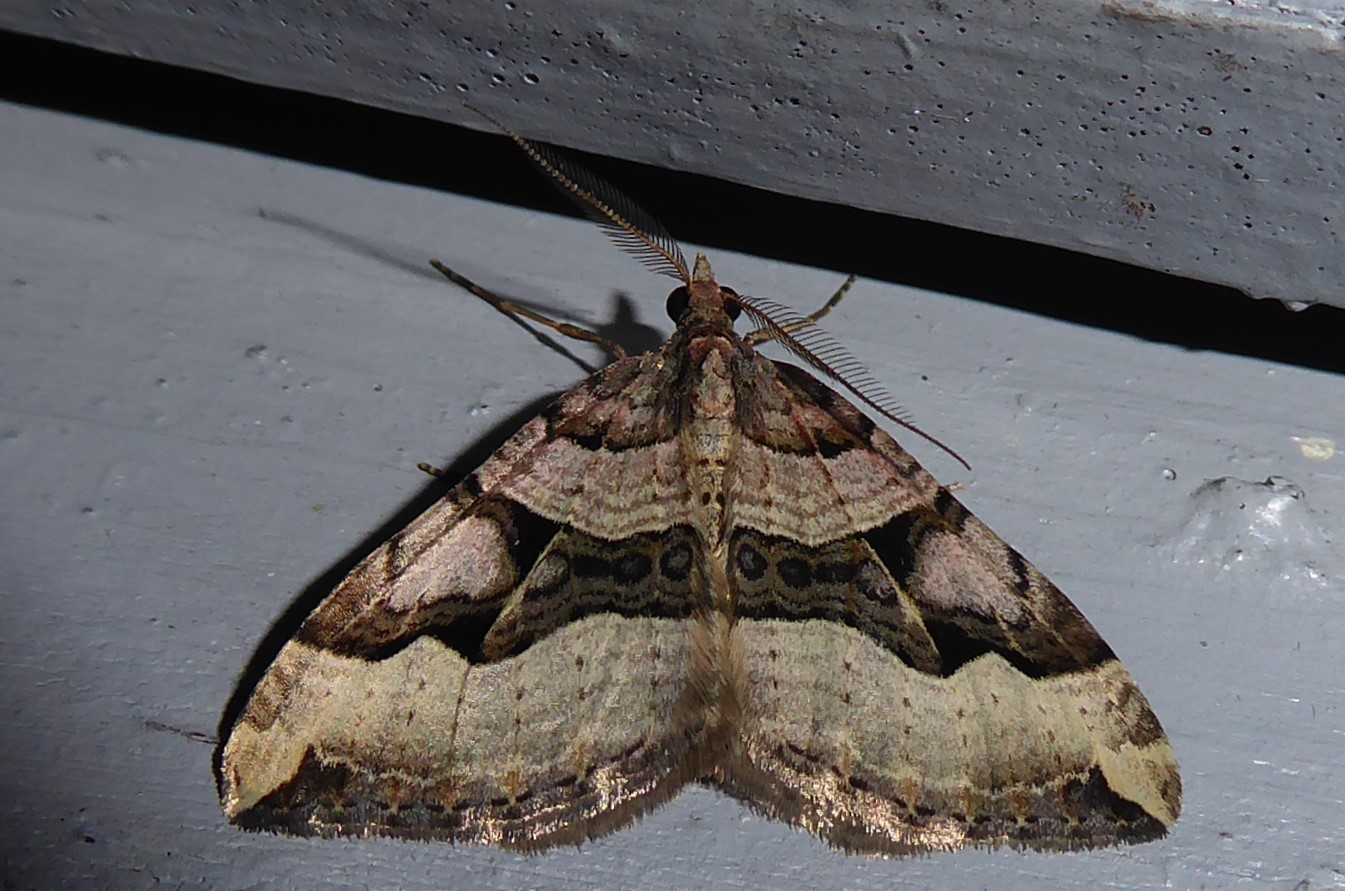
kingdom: Animalia
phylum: Arthropoda
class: Insecta
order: Lepidoptera
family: Geometridae
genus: Xanthorhoe
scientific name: Xanthorhoe semifissata
